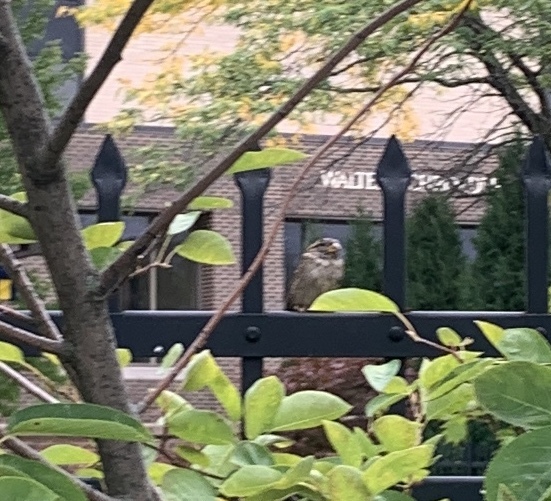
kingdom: Animalia
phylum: Chordata
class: Aves
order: Passeriformes
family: Passeridae
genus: Passer
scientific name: Passer domesticus
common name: House sparrow
